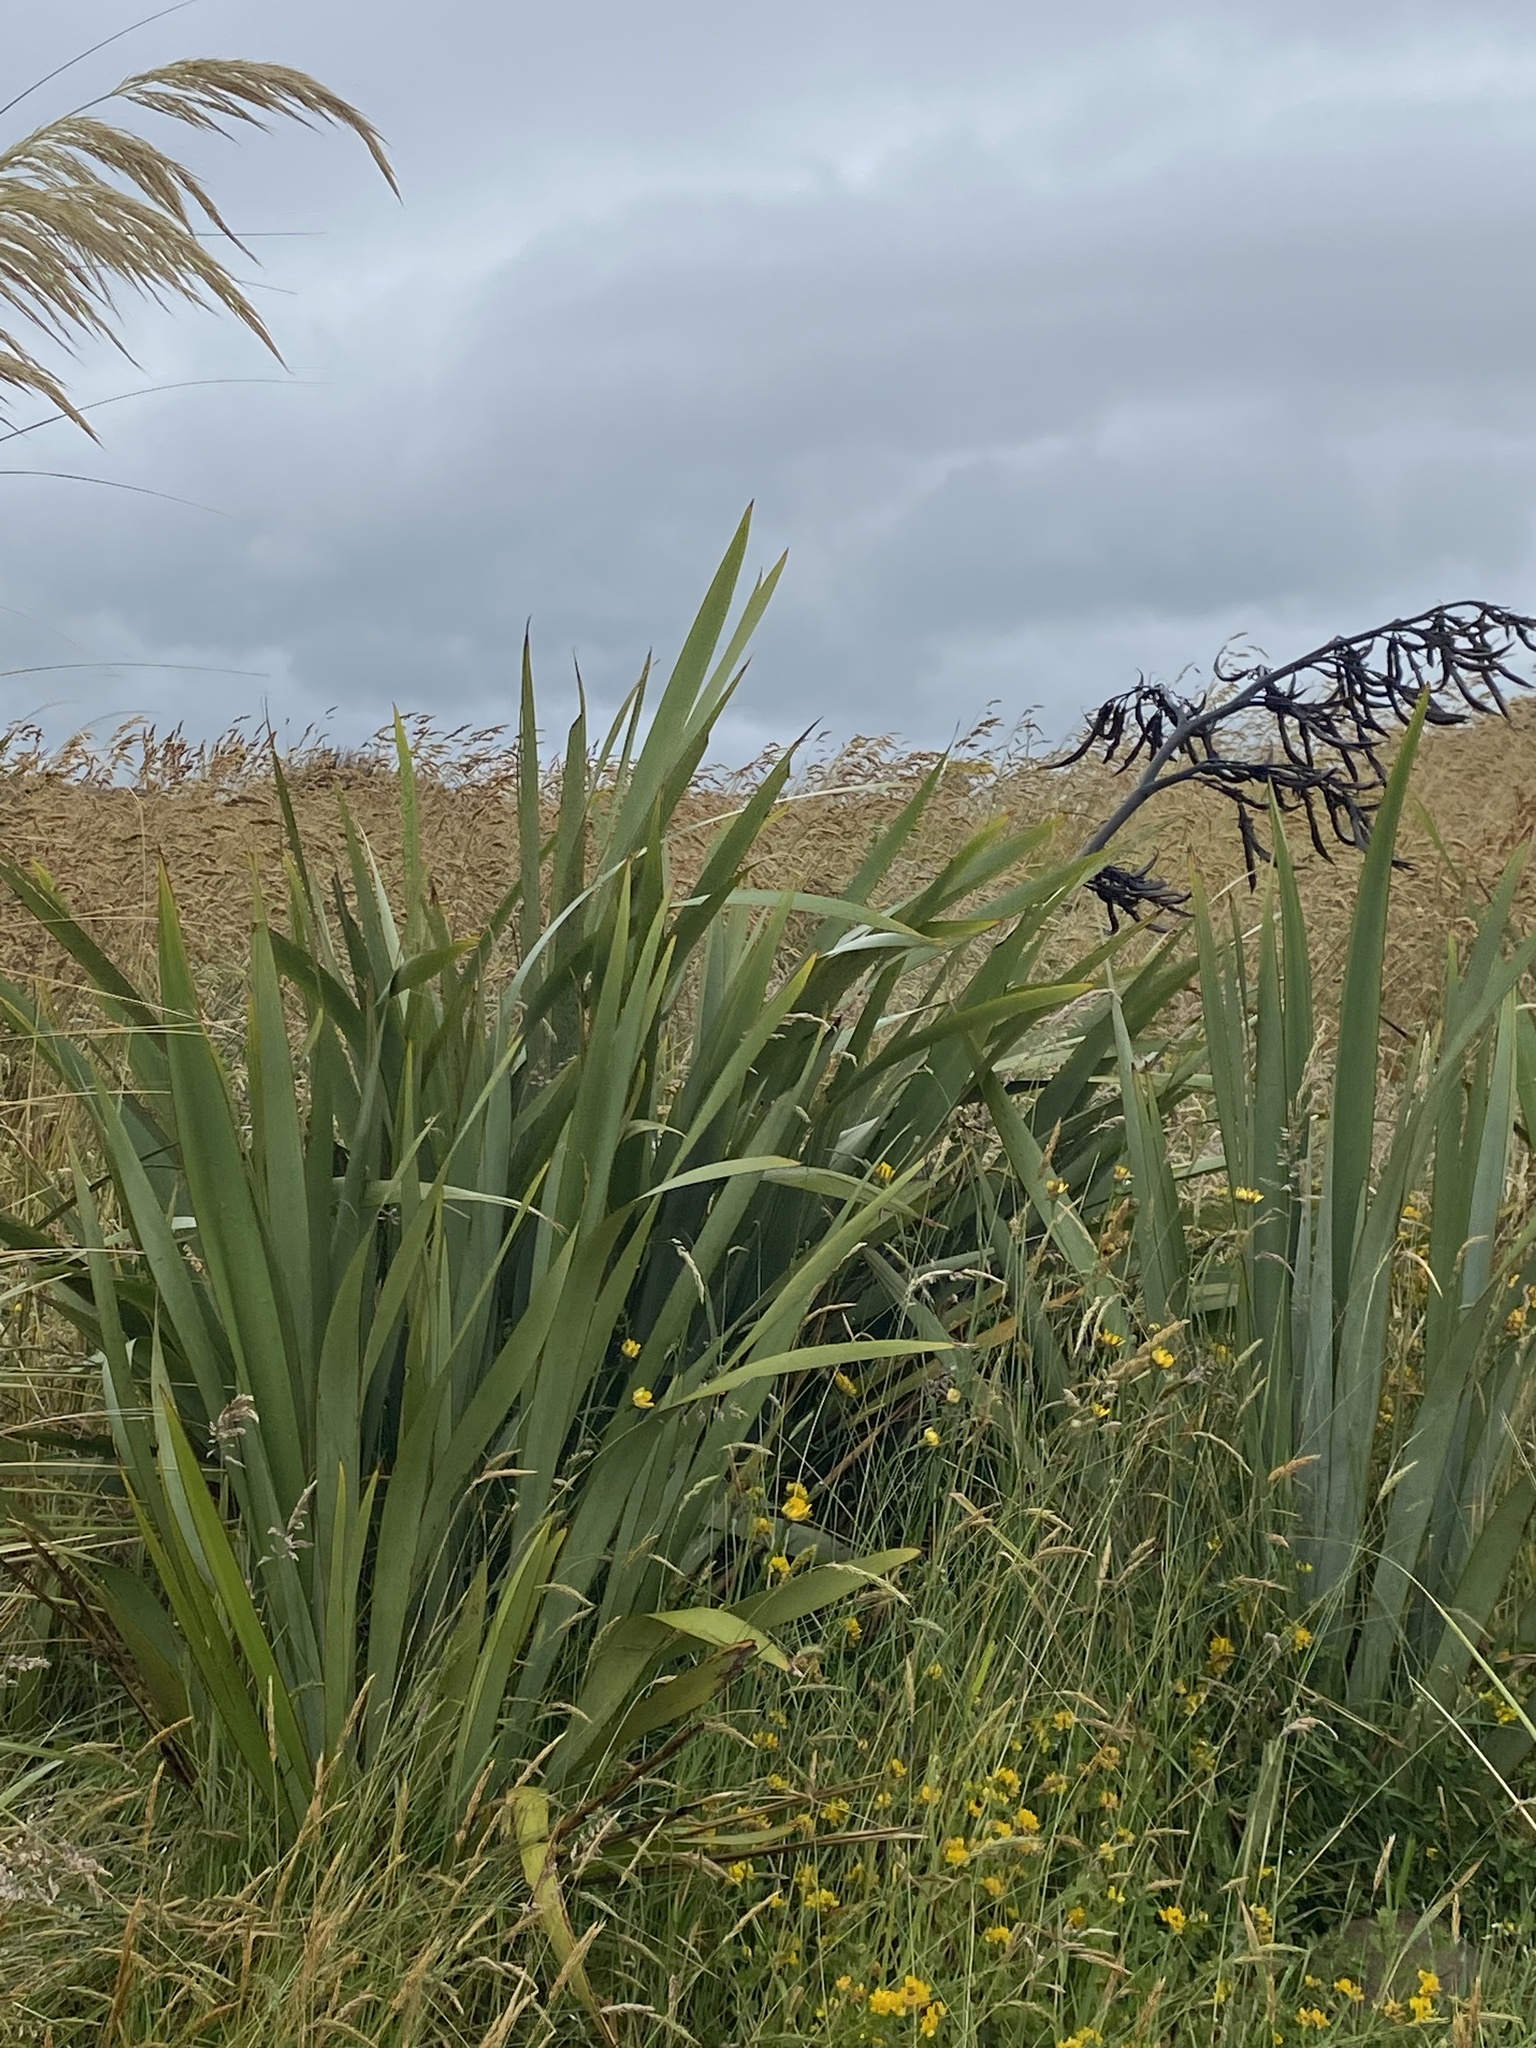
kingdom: Plantae
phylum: Tracheophyta
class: Liliopsida
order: Asparagales
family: Asphodelaceae
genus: Phormium
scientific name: Phormium tenax
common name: New zealand flax
